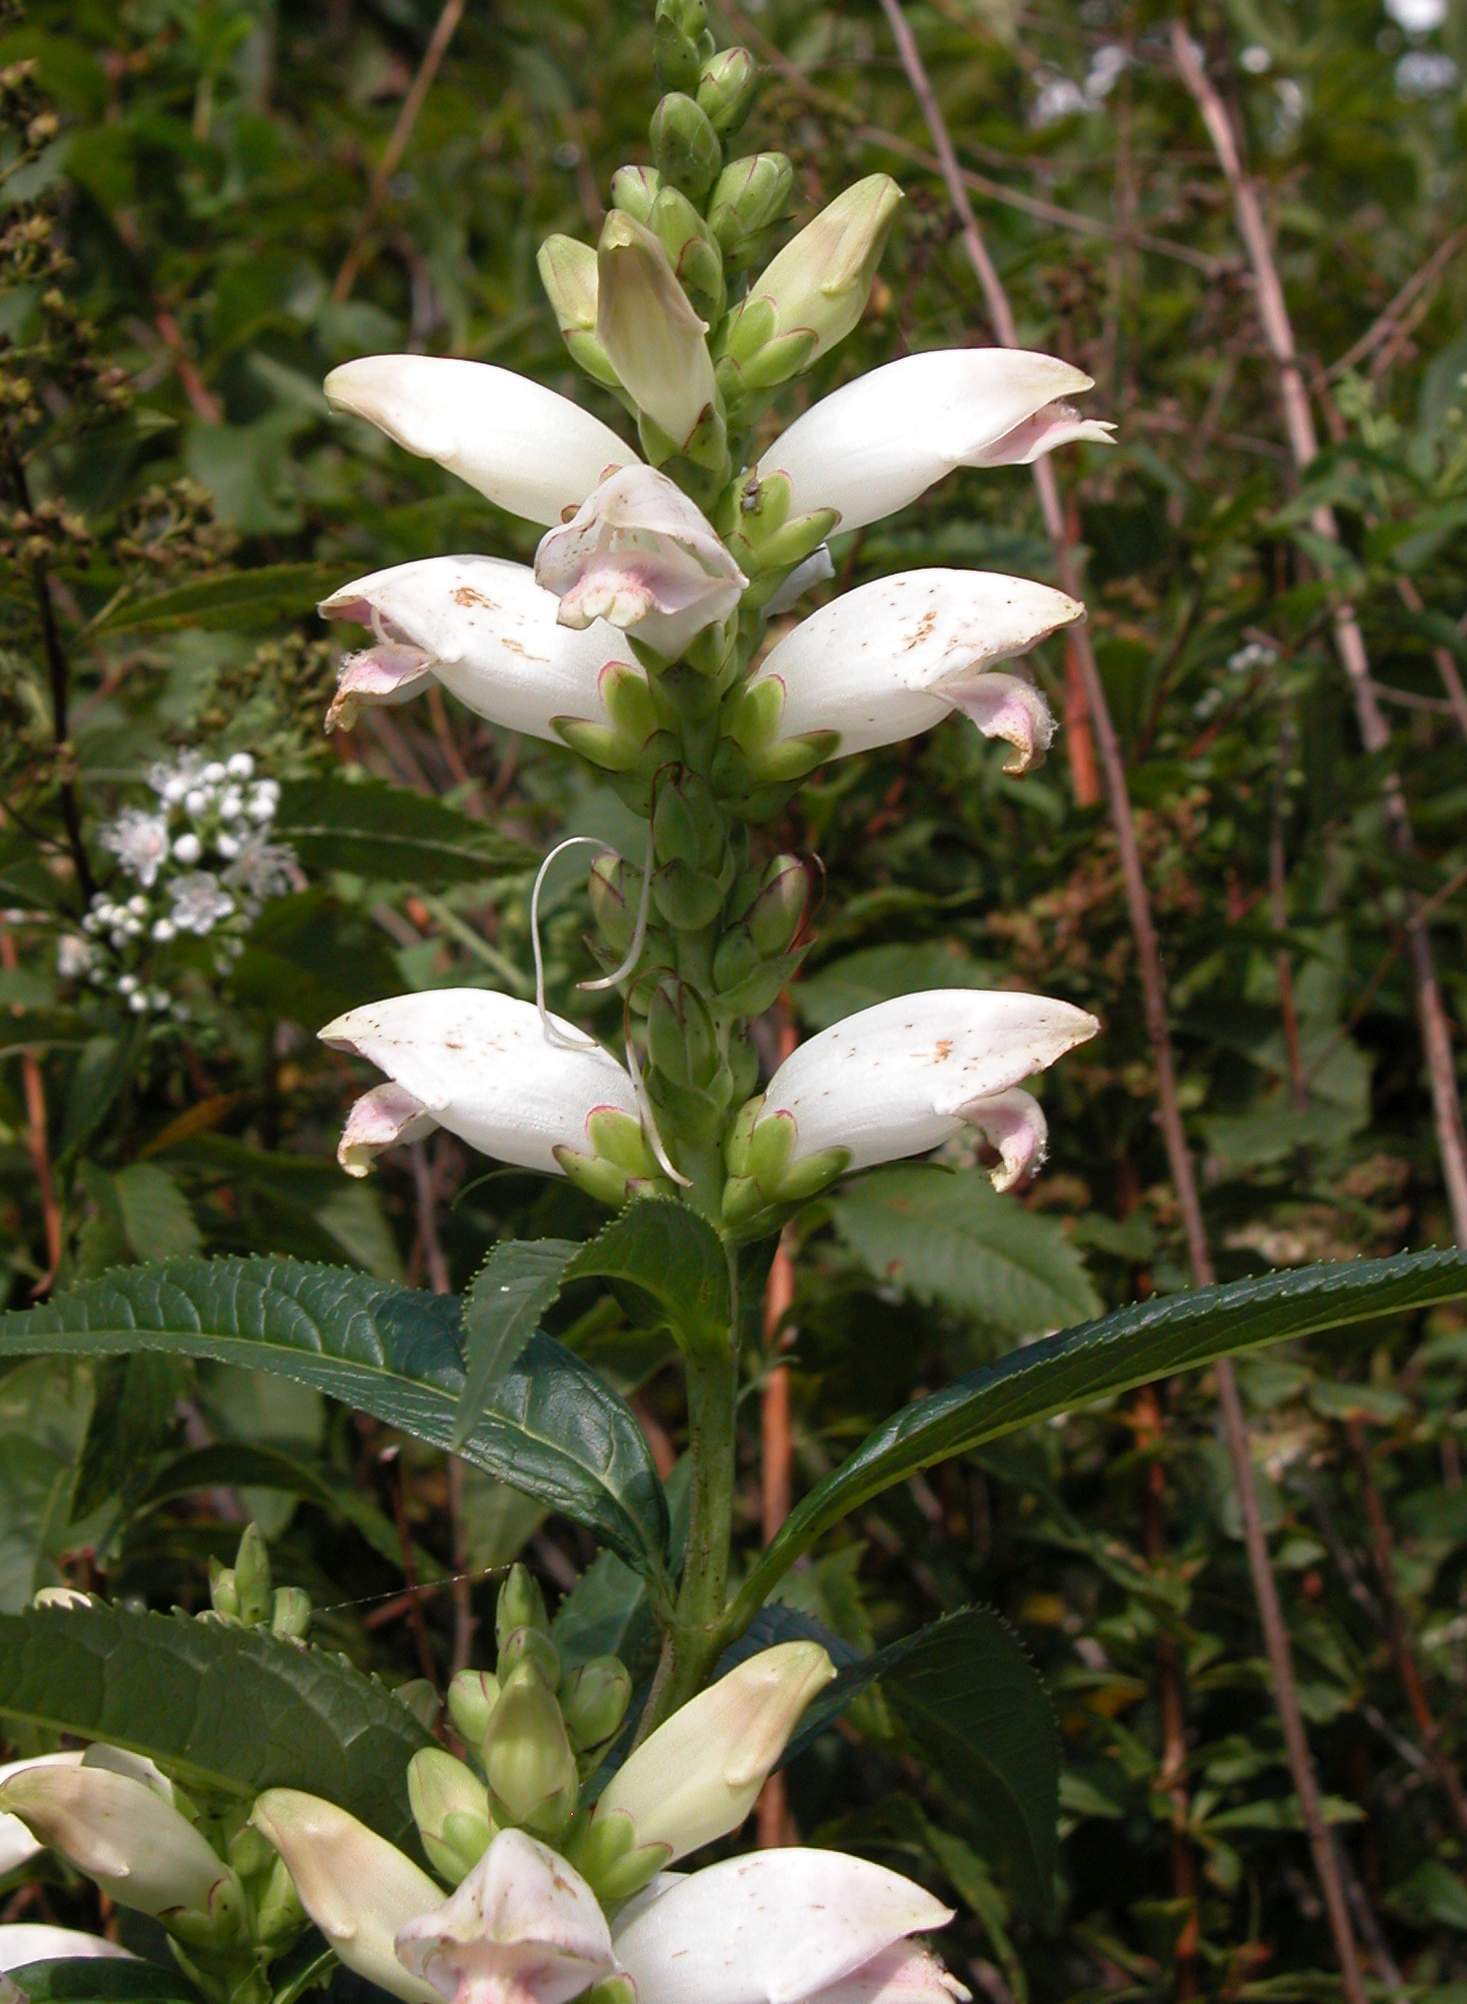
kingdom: Plantae
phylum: Tracheophyta
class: Magnoliopsida
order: Lamiales
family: Plantaginaceae
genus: Chelone
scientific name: Chelone glabra
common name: Snakehead
